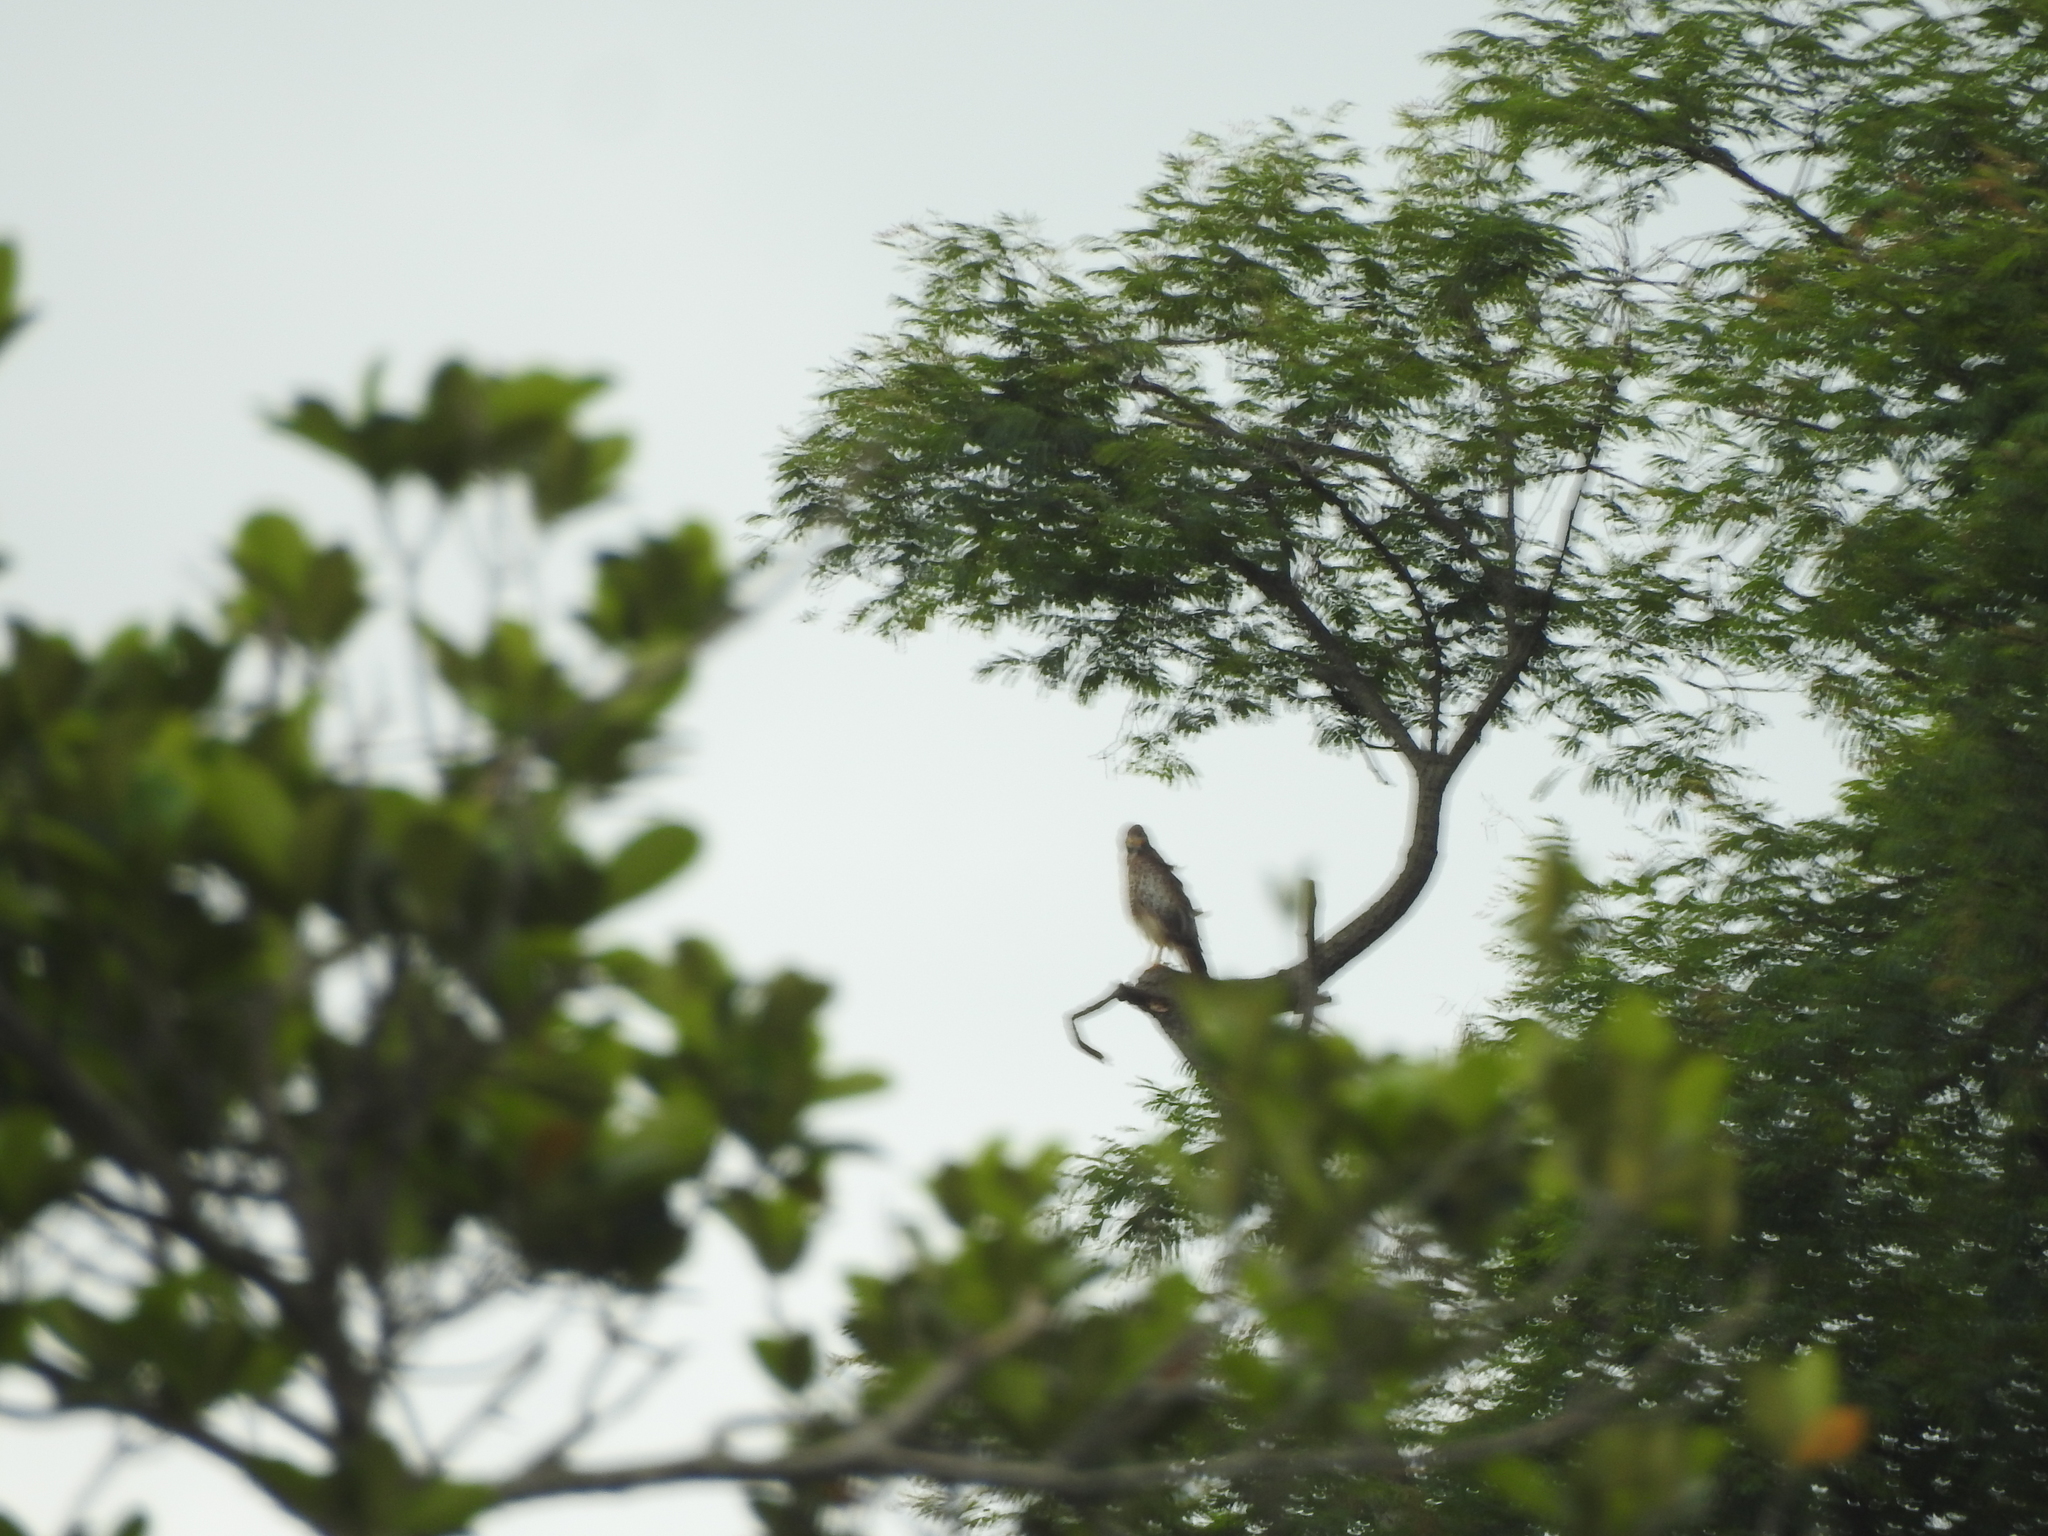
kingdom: Animalia
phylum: Chordata
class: Aves
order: Accipitriformes
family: Accipitridae
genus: Butastur
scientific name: Butastur teesa
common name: White-eyed buzzard
